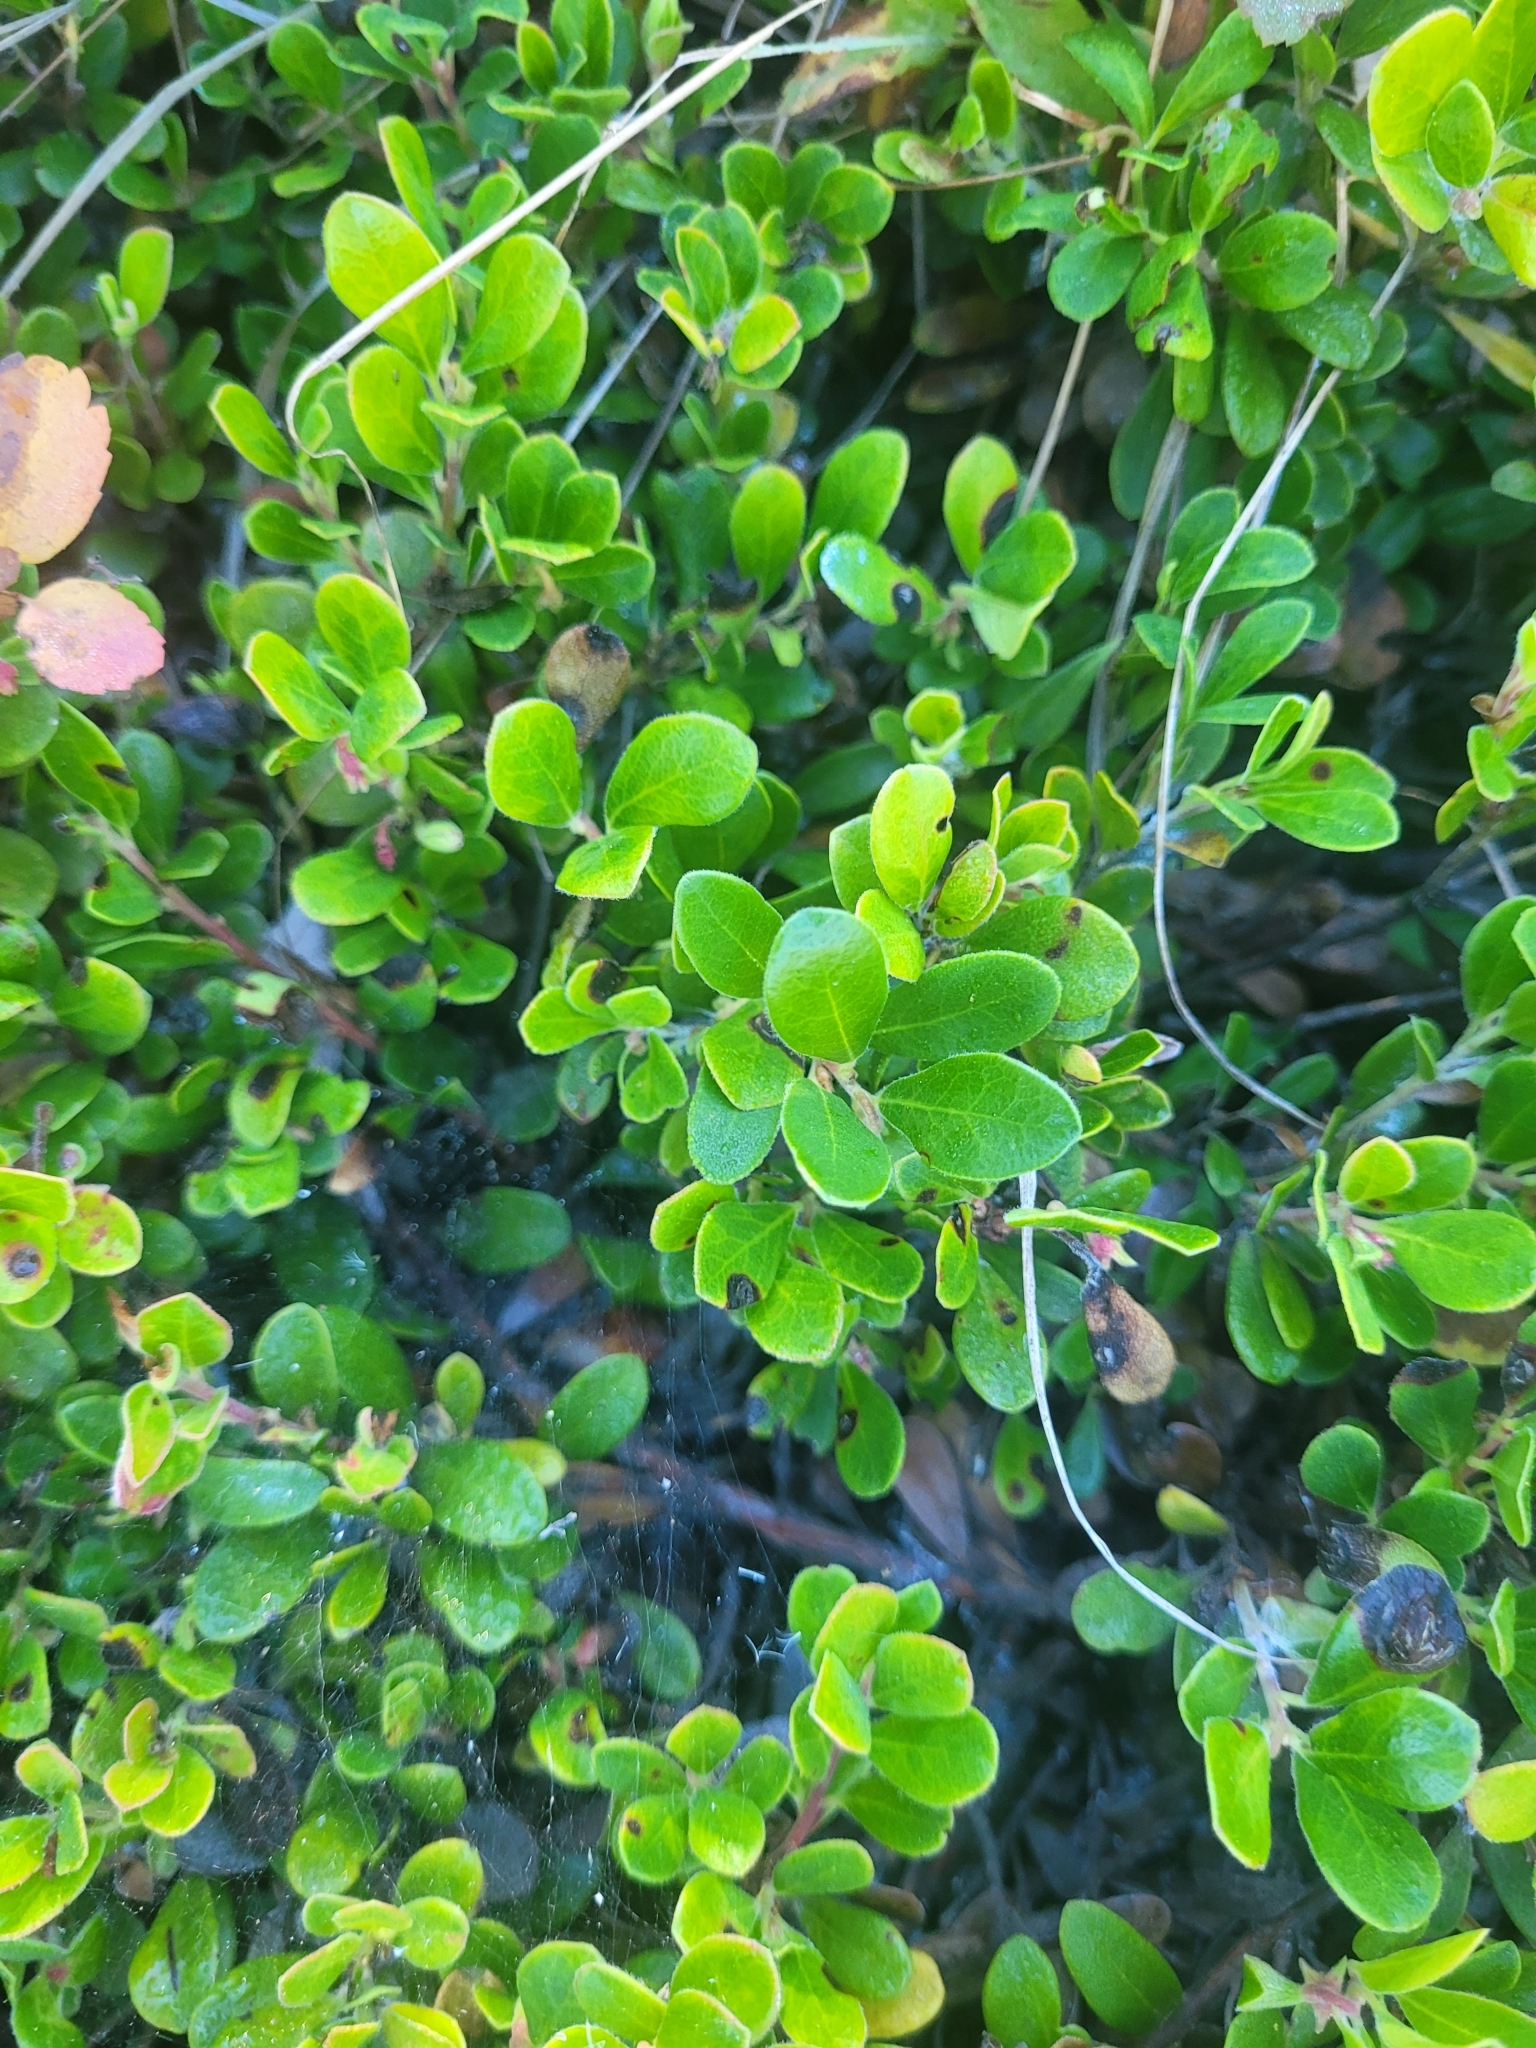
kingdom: Plantae
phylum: Tracheophyta
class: Magnoliopsida
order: Ericales
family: Ericaceae
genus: Arctostaphylos
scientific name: Arctostaphylos uva-ursi
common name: Bearberry
